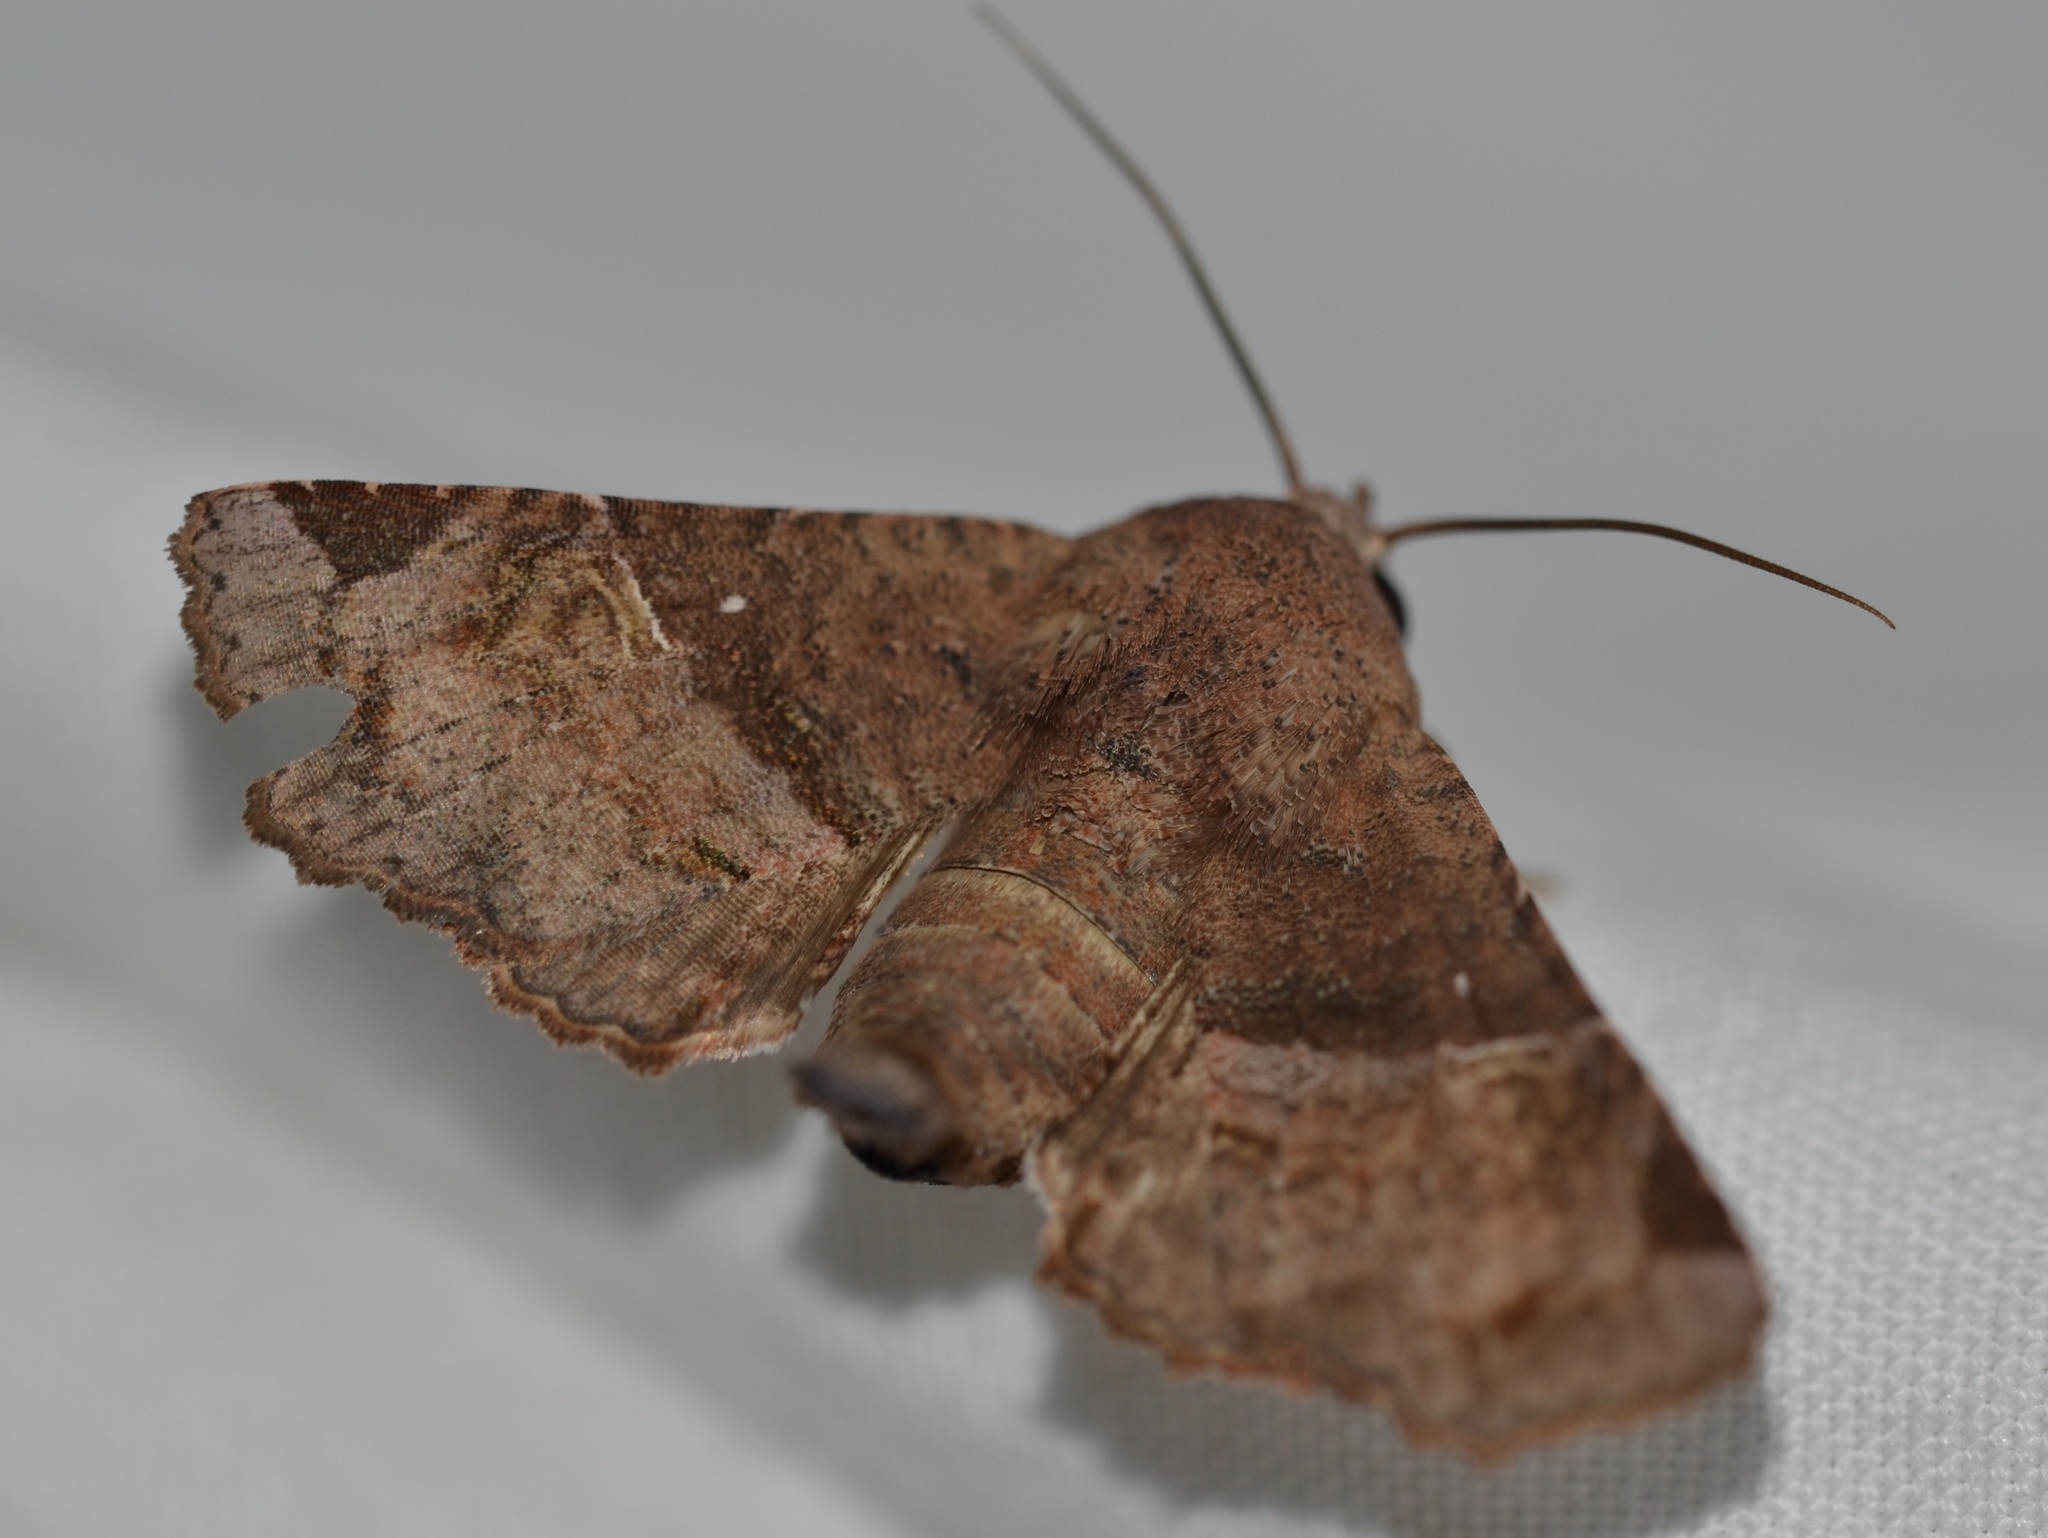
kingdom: Animalia
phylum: Arthropoda
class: Insecta
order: Lepidoptera
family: Euteliidae
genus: Targalla
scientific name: Targalla delatrix
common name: Eugenia caterpillar
